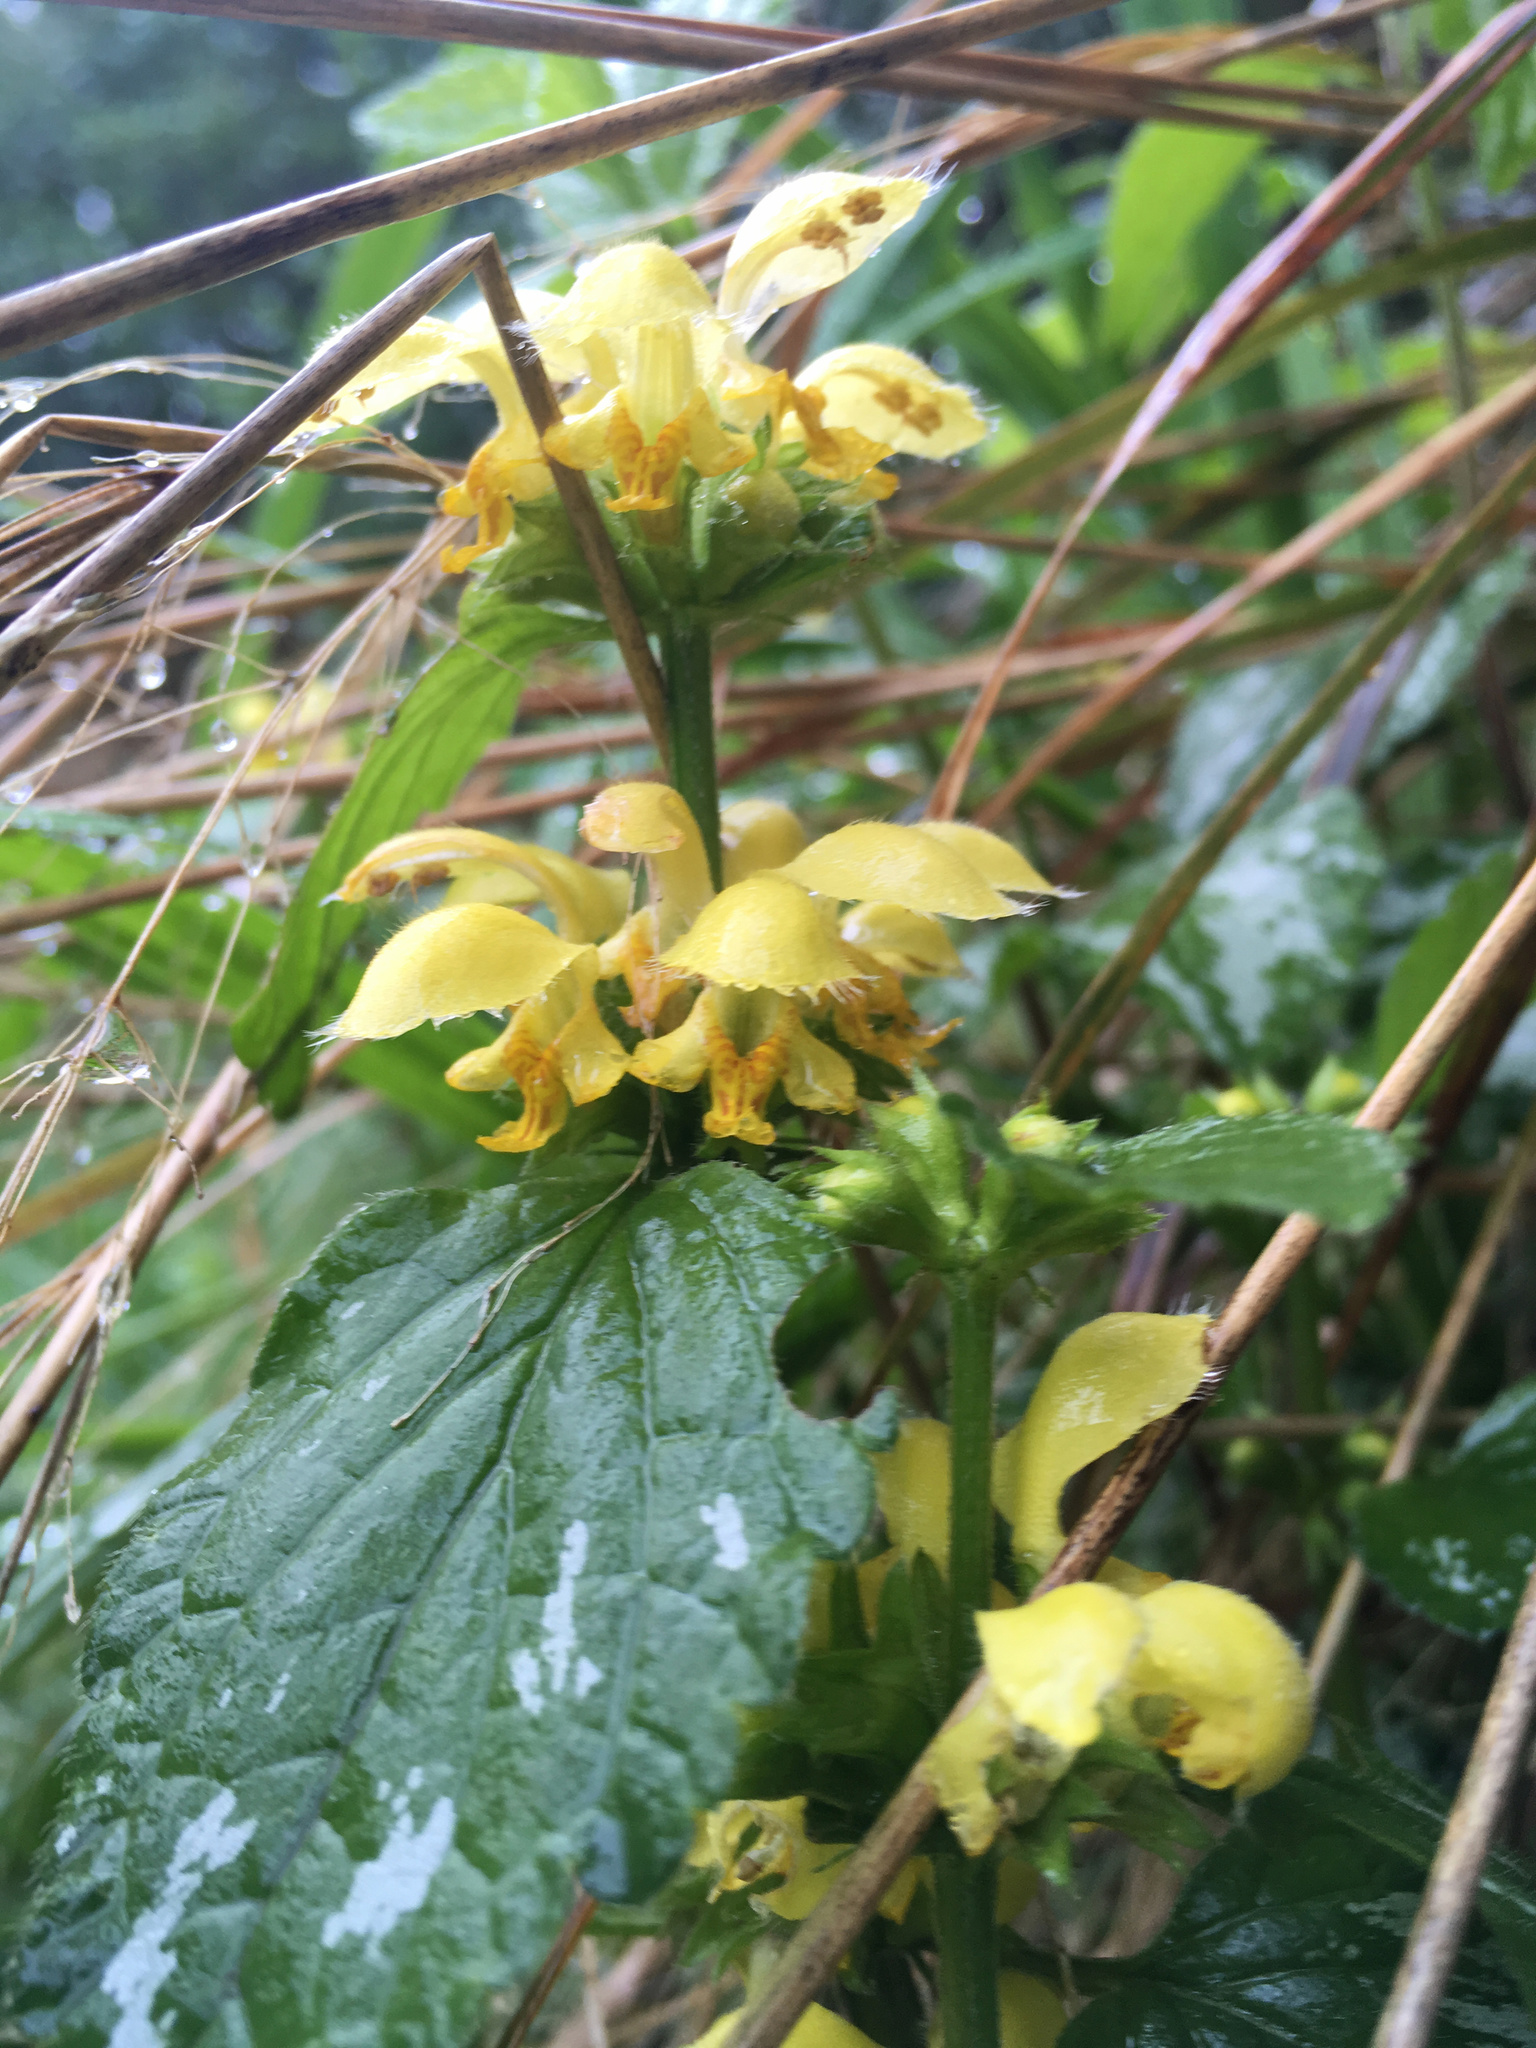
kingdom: Plantae
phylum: Tracheophyta
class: Magnoliopsida
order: Lamiales
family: Lamiaceae
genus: Lamium
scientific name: Lamium galeobdolon
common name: Yellow archangel
